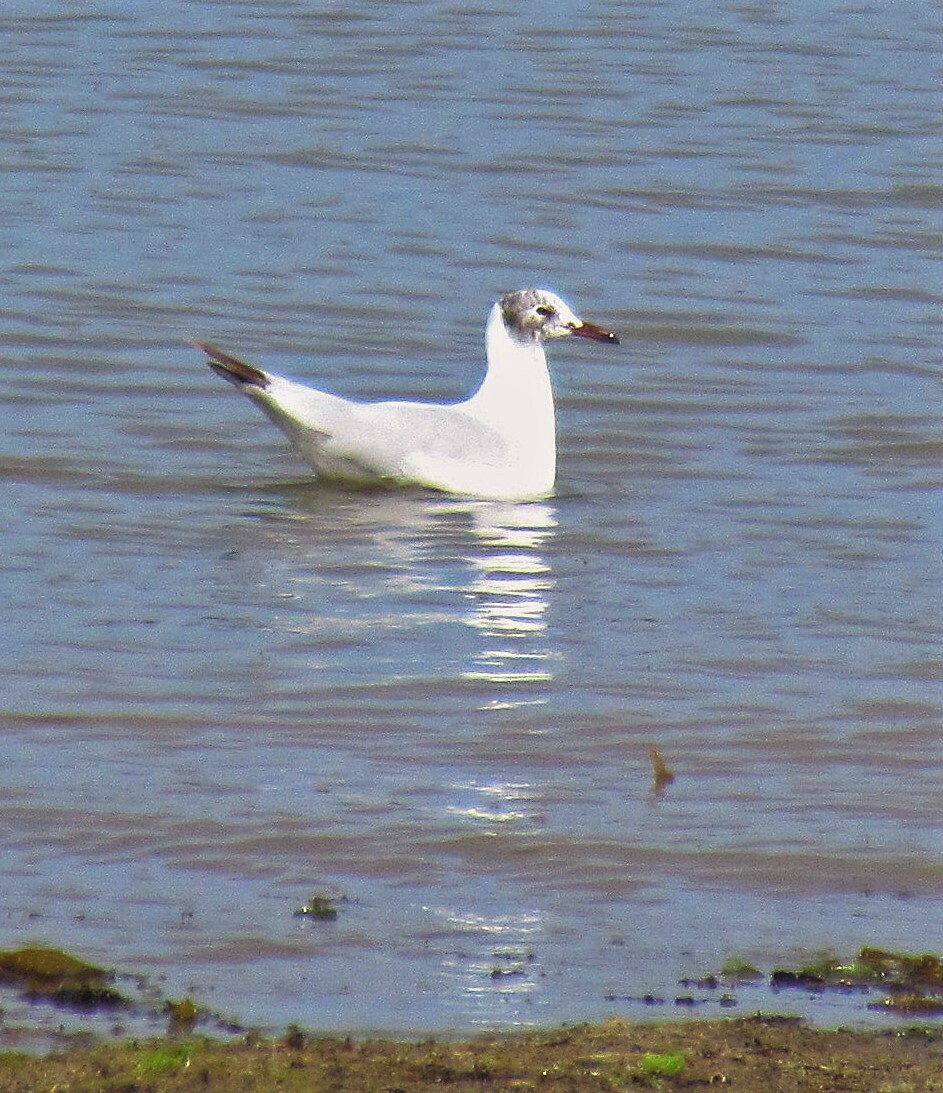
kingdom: Animalia
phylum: Chordata
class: Aves
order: Charadriiformes
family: Laridae
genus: Chroicocephalus
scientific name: Chroicocephalus maculipennis
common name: Brown-hooded gull
